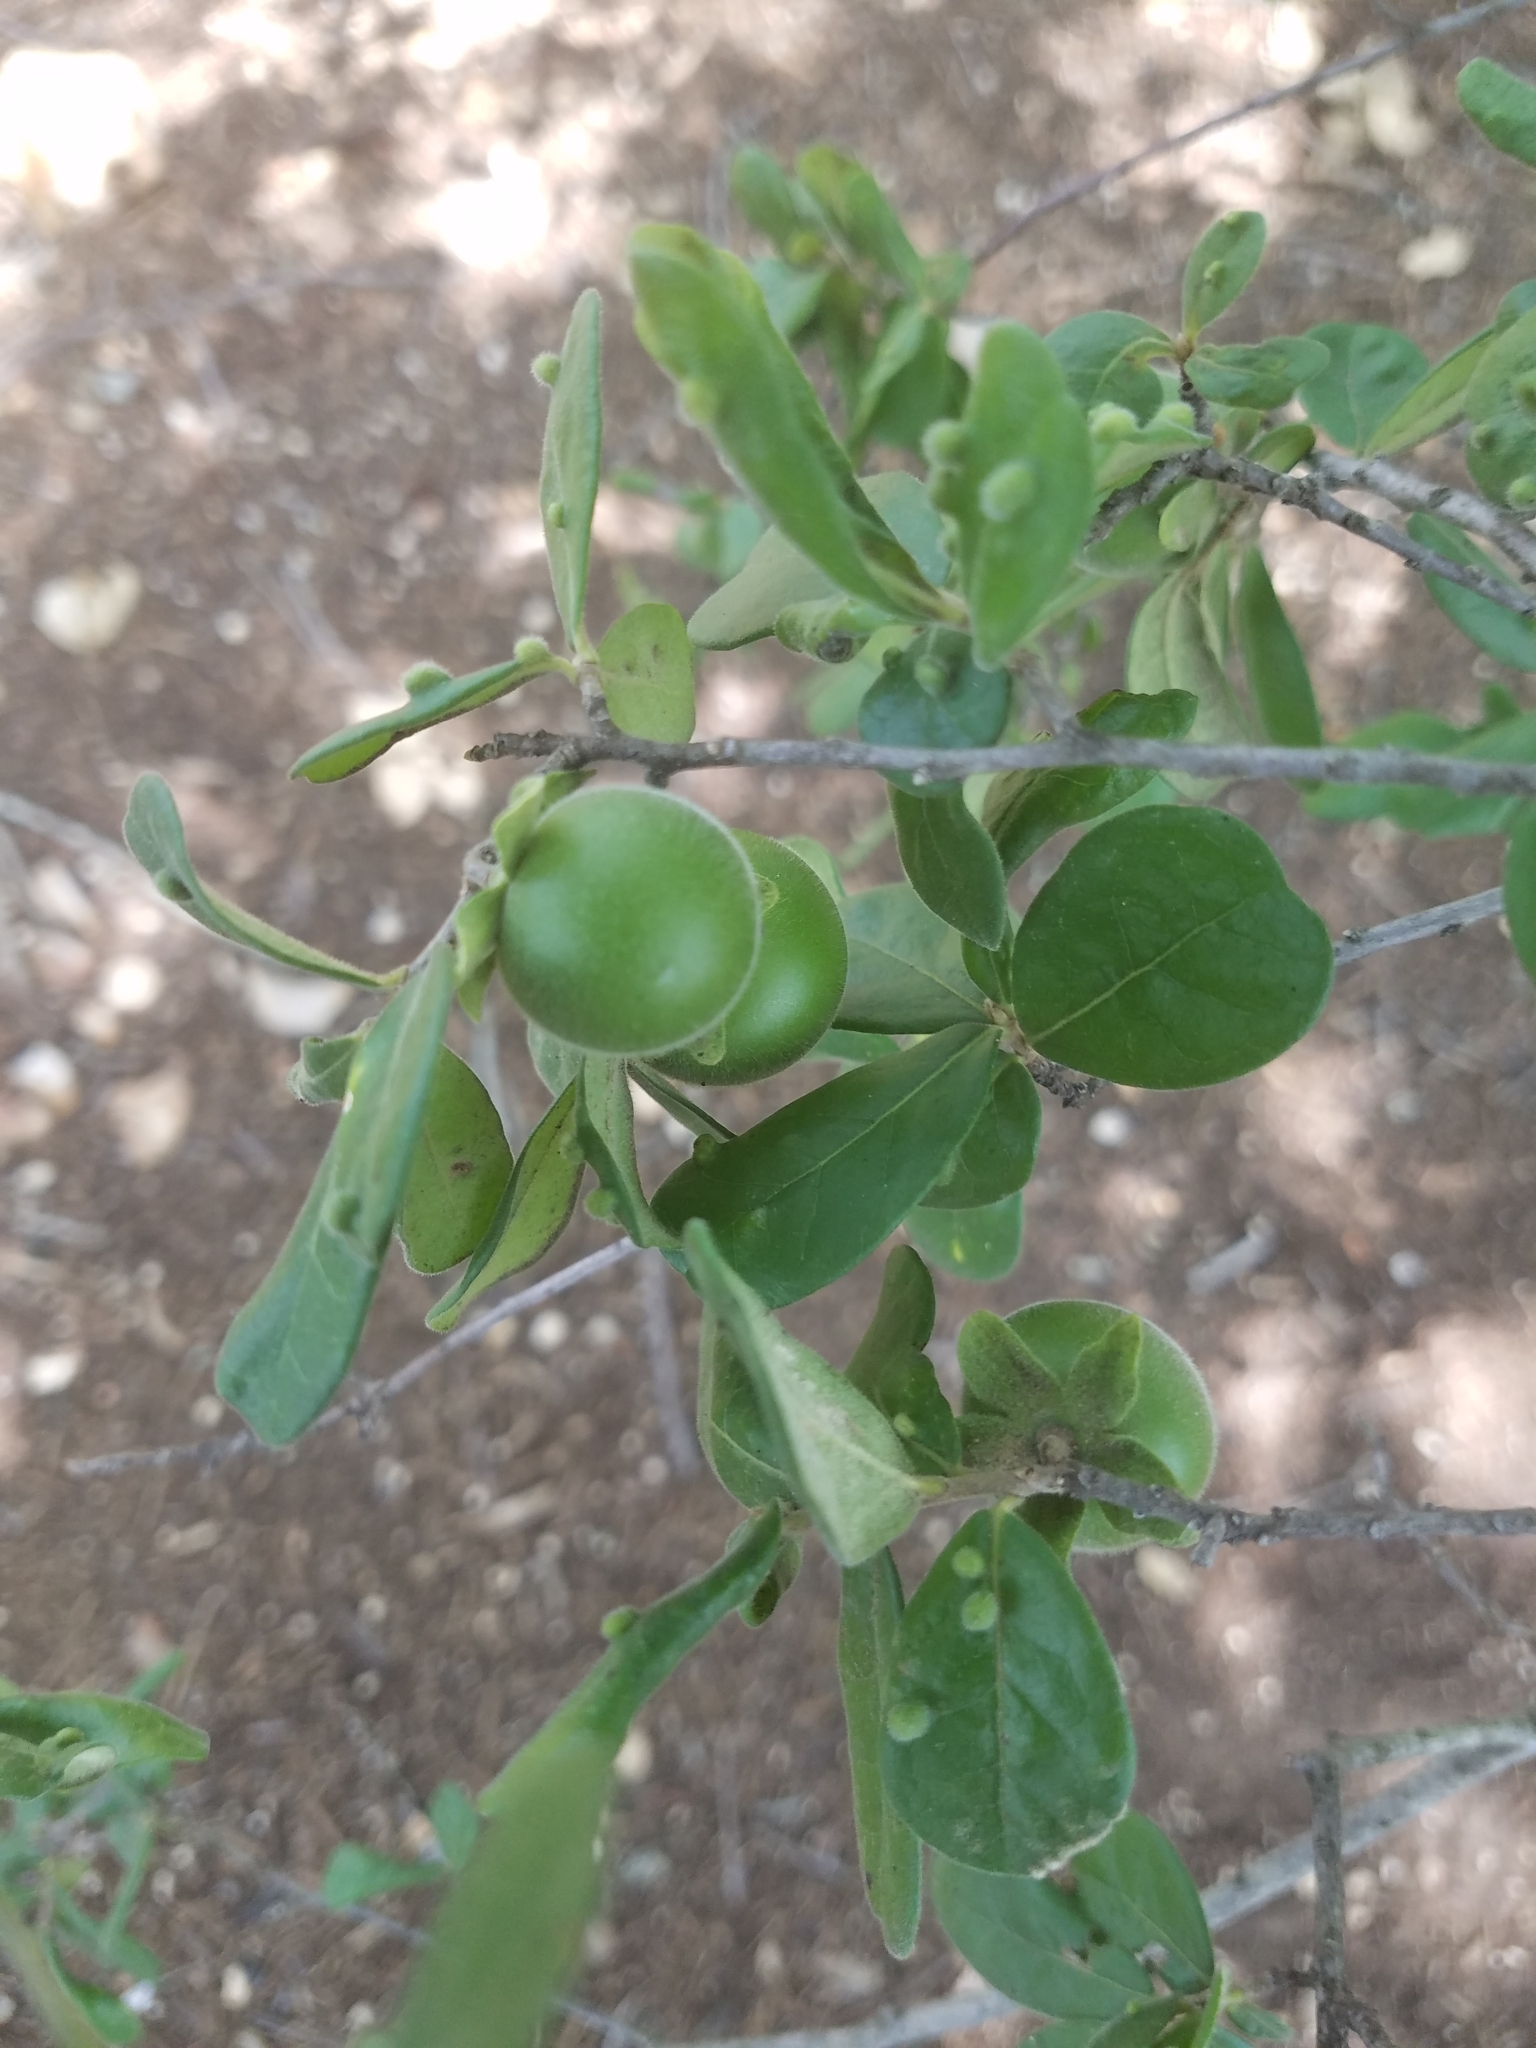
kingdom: Plantae
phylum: Tracheophyta
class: Magnoliopsida
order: Ericales
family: Ebenaceae
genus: Diospyros
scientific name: Diospyros texana
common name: Texas persimmon
